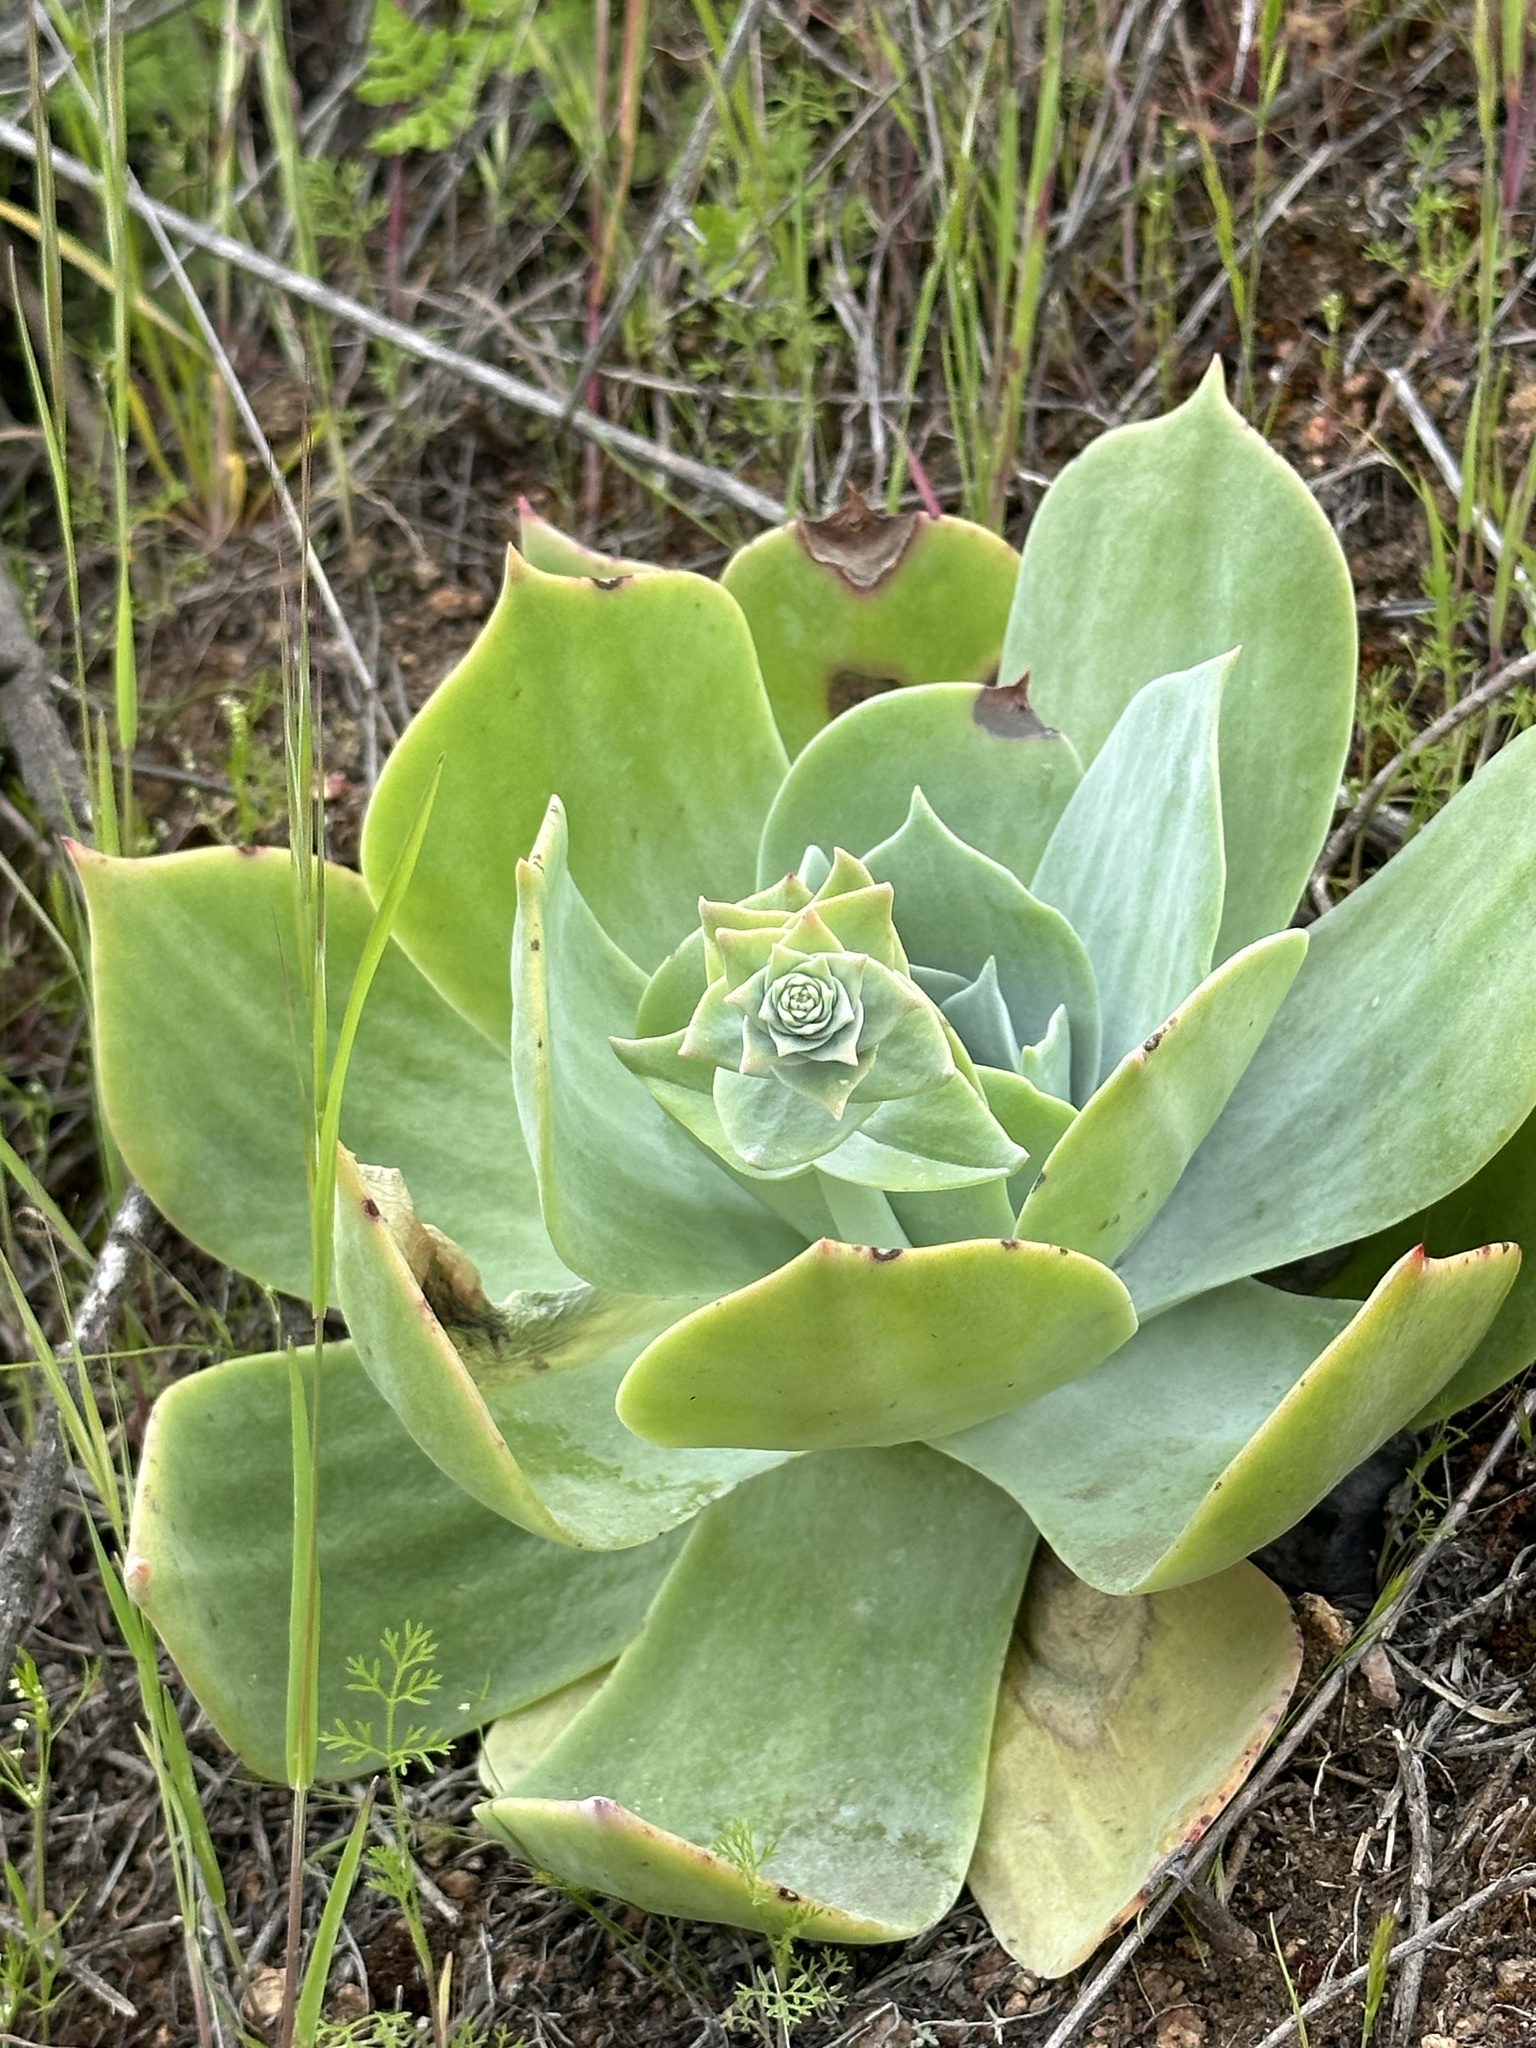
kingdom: Plantae
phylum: Tracheophyta
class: Magnoliopsida
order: Saxifragales
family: Crassulaceae
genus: Dudleya
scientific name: Dudleya pulverulenta
